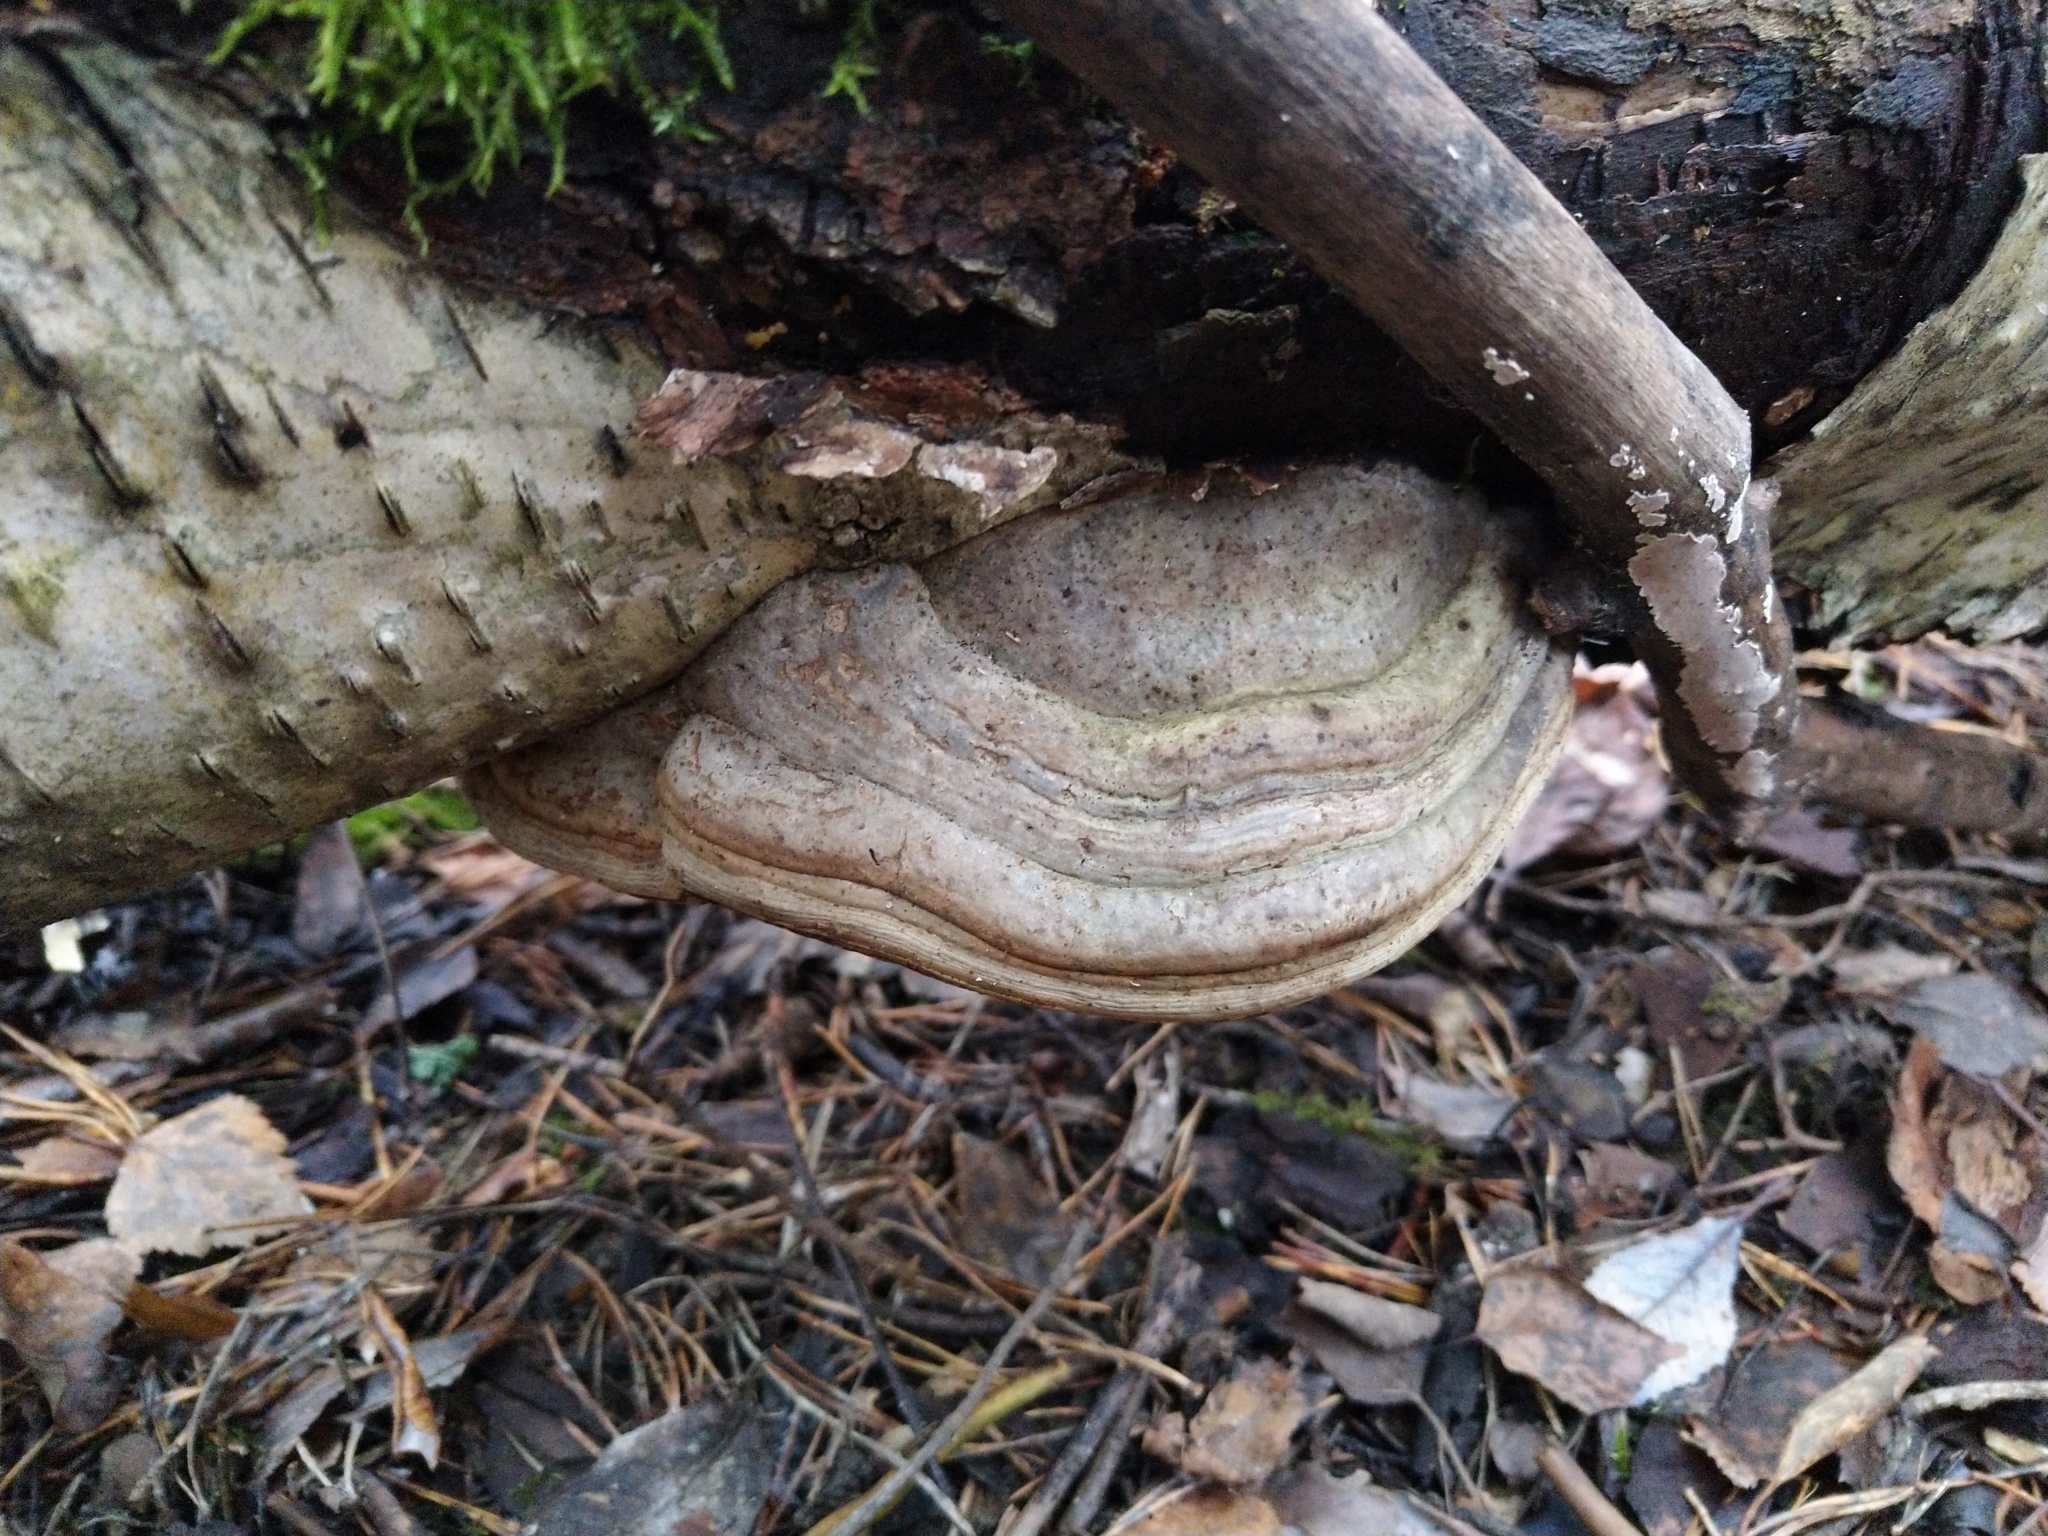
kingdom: Fungi
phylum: Basidiomycota
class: Agaricomycetes
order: Polyporales
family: Polyporaceae
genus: Fomes
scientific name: Fomes fomentarius
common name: Hoof fungus
